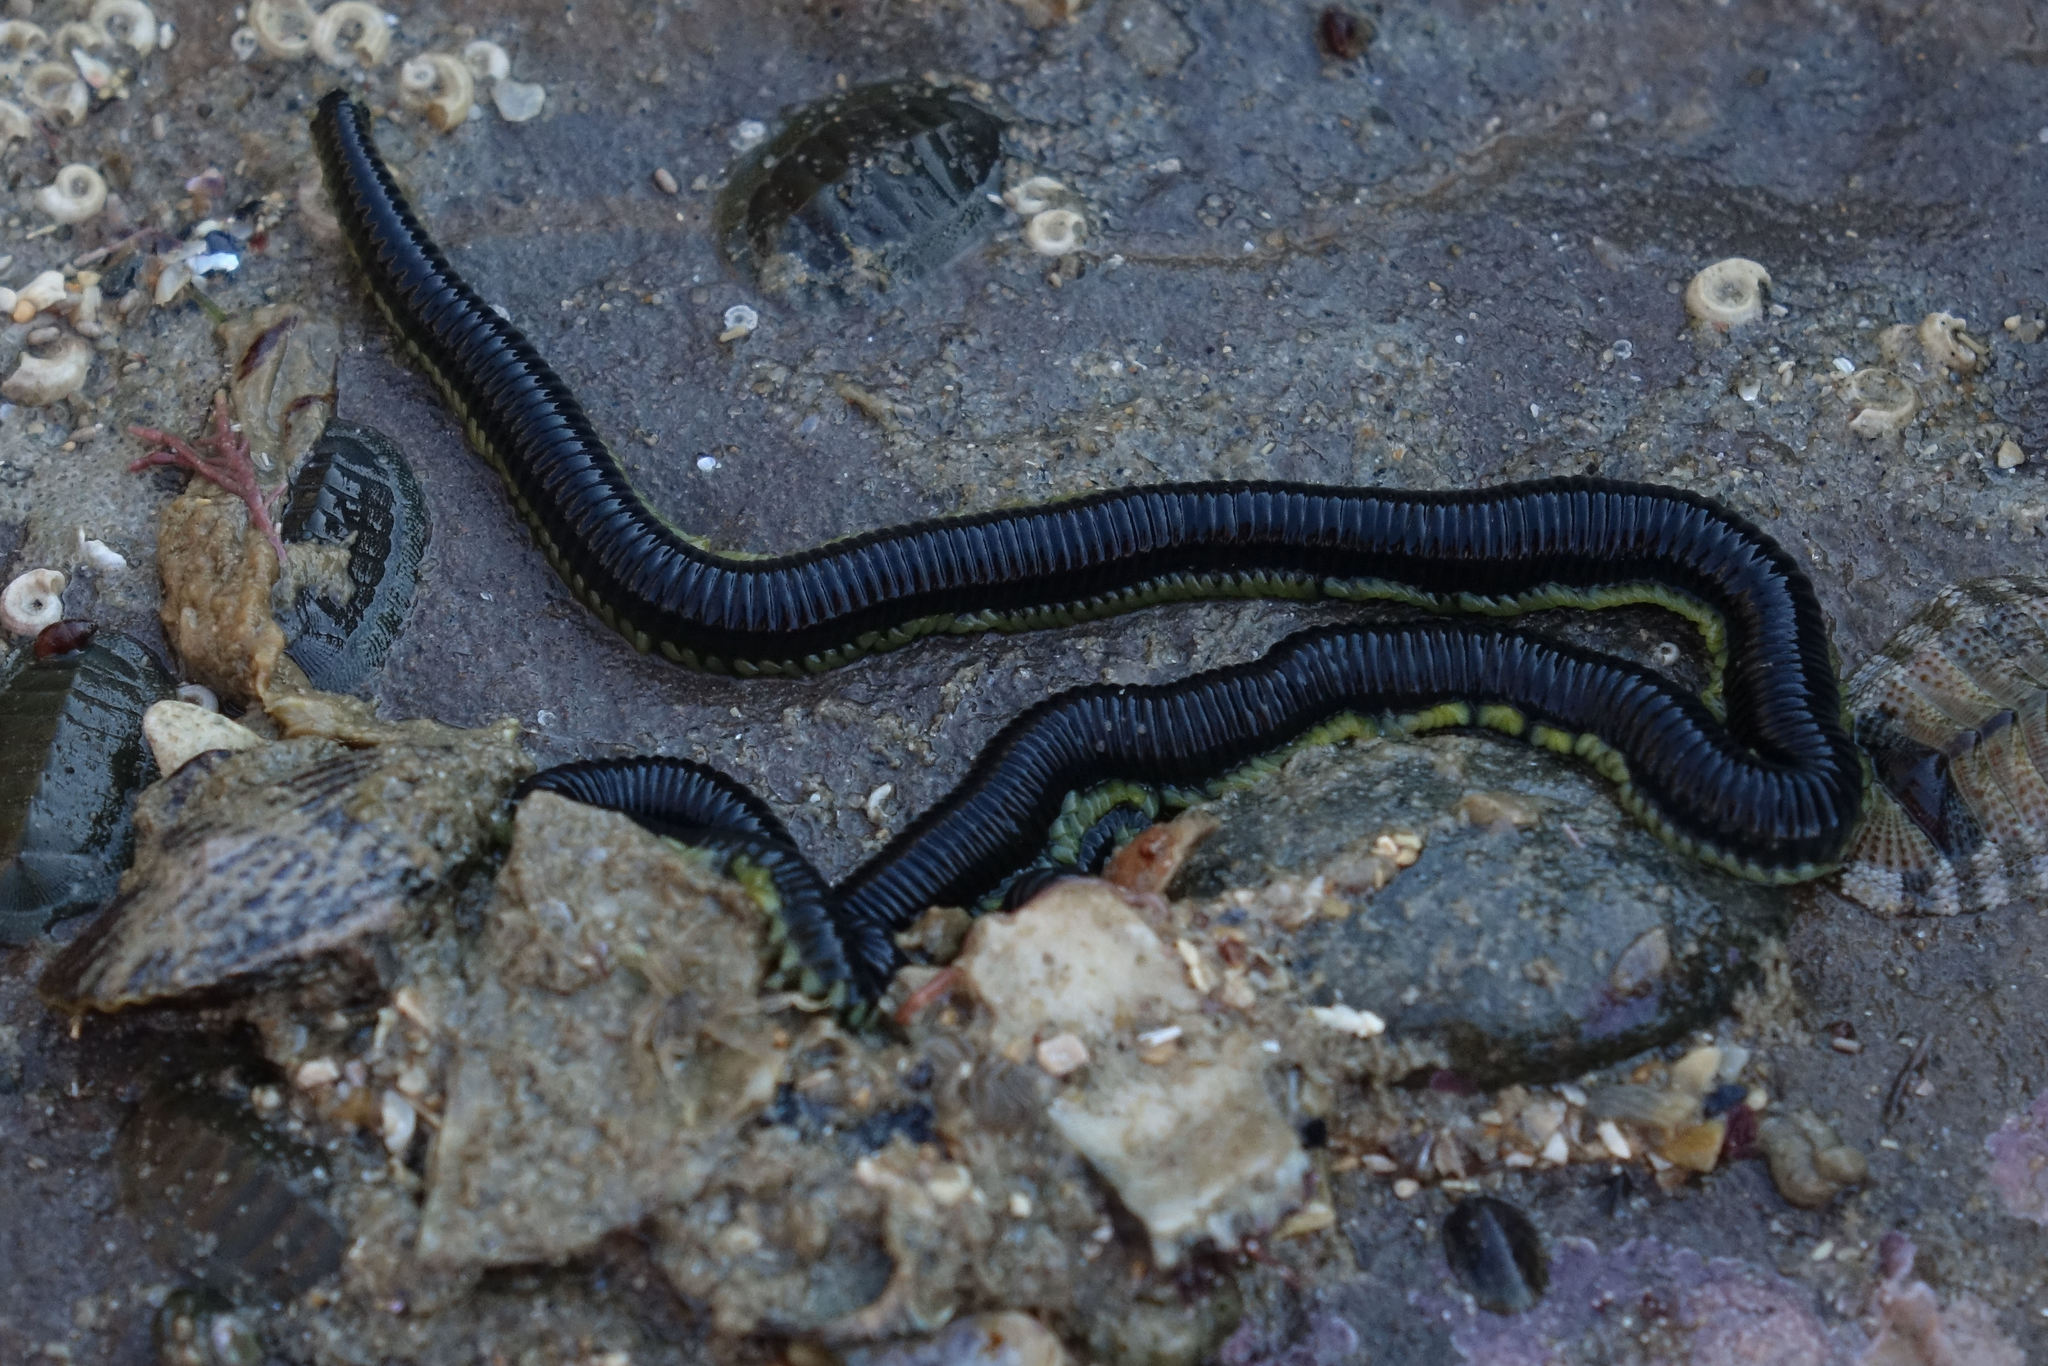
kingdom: Animalia
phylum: Annelida
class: Polychaeta
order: Phyllodocida
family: Phyllodocidae
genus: Eulalia
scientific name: Eulalia microphylla
